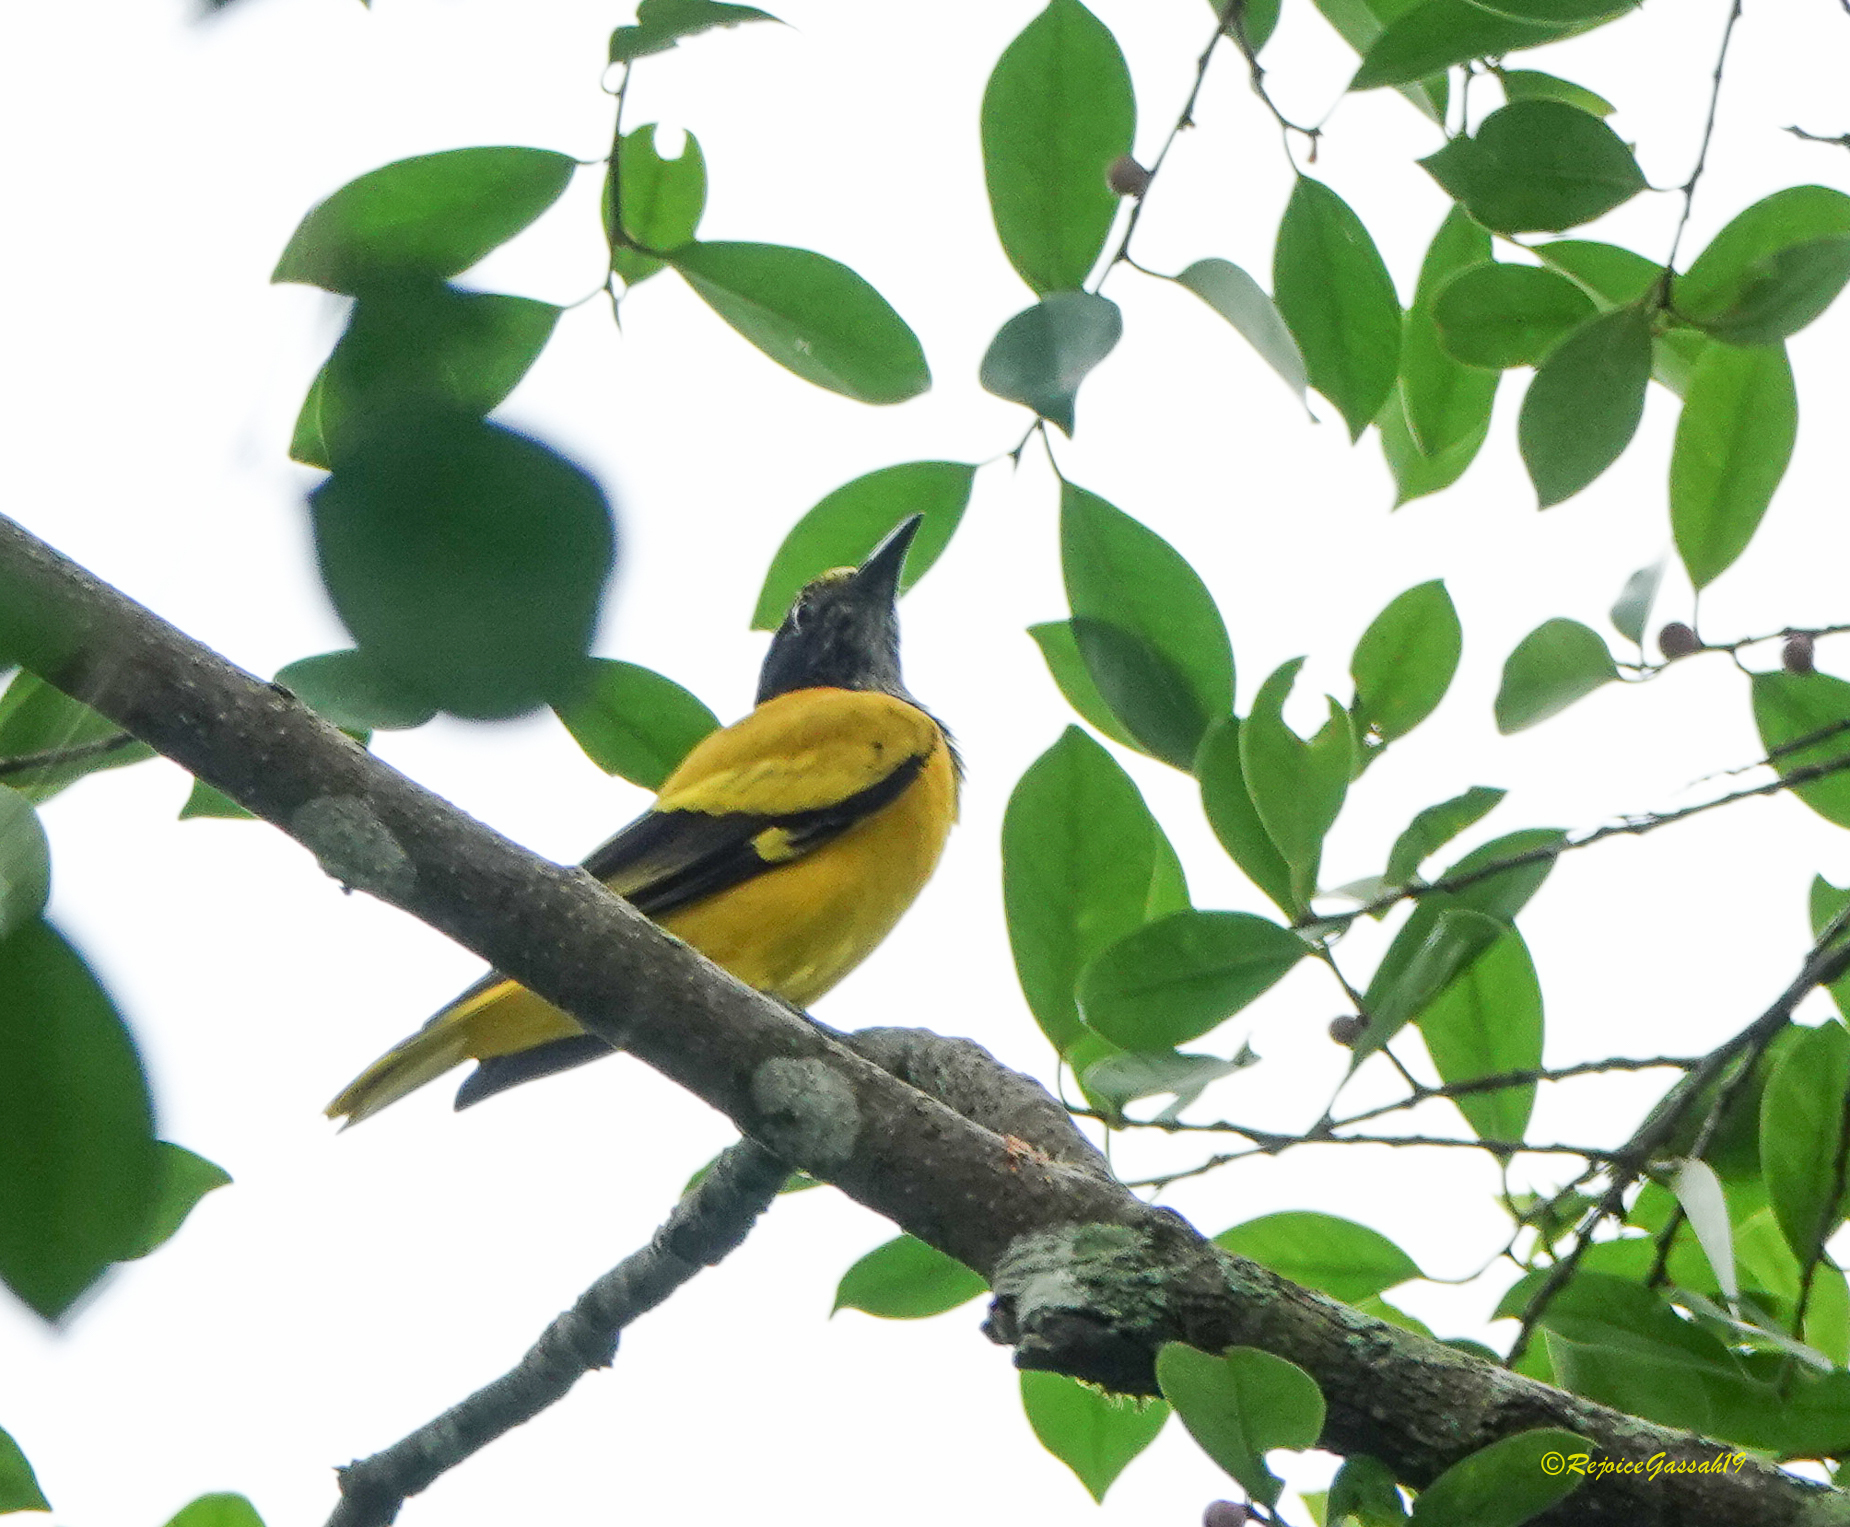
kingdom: Animalia
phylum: Chordata
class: Aves
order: Passeriformes
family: Oriolidae
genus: Oriolus
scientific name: Oriolus xanthornus
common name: Black-hooded oriole
